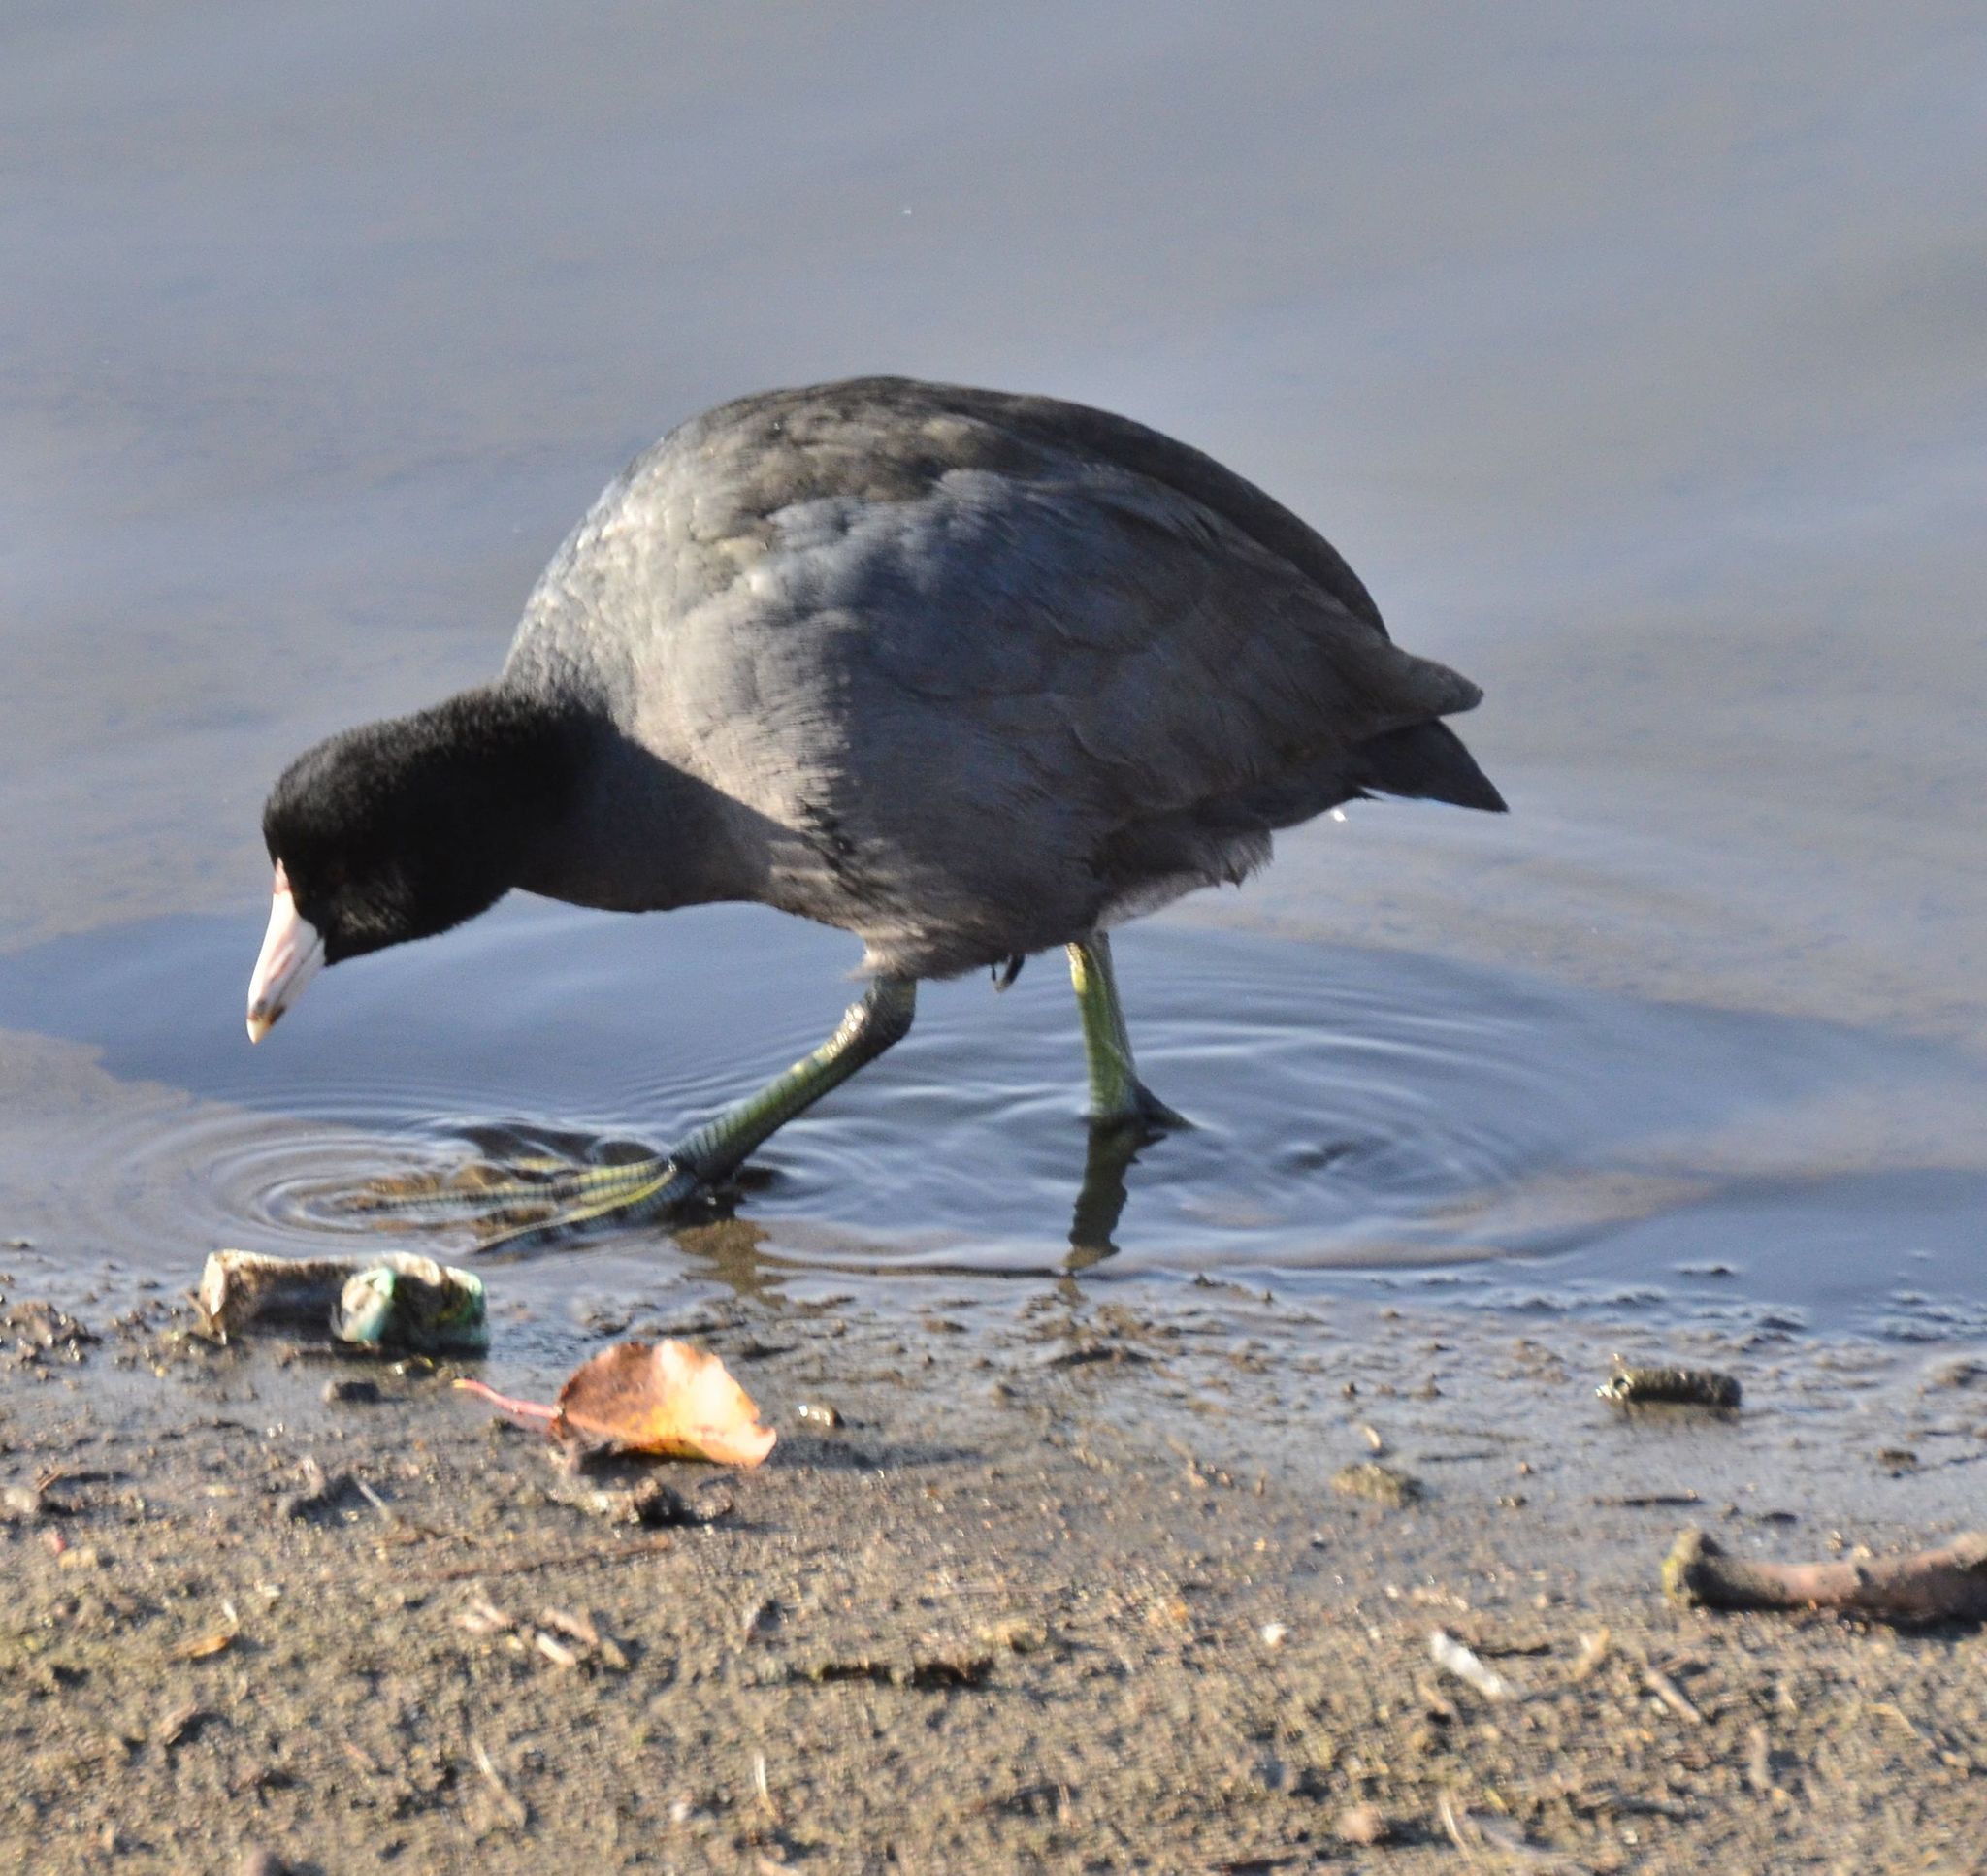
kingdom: Animalia
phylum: Chordata
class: Aves
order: Gruiformes
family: Rallidae
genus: Fulica
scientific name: Fulica americana
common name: American coot
